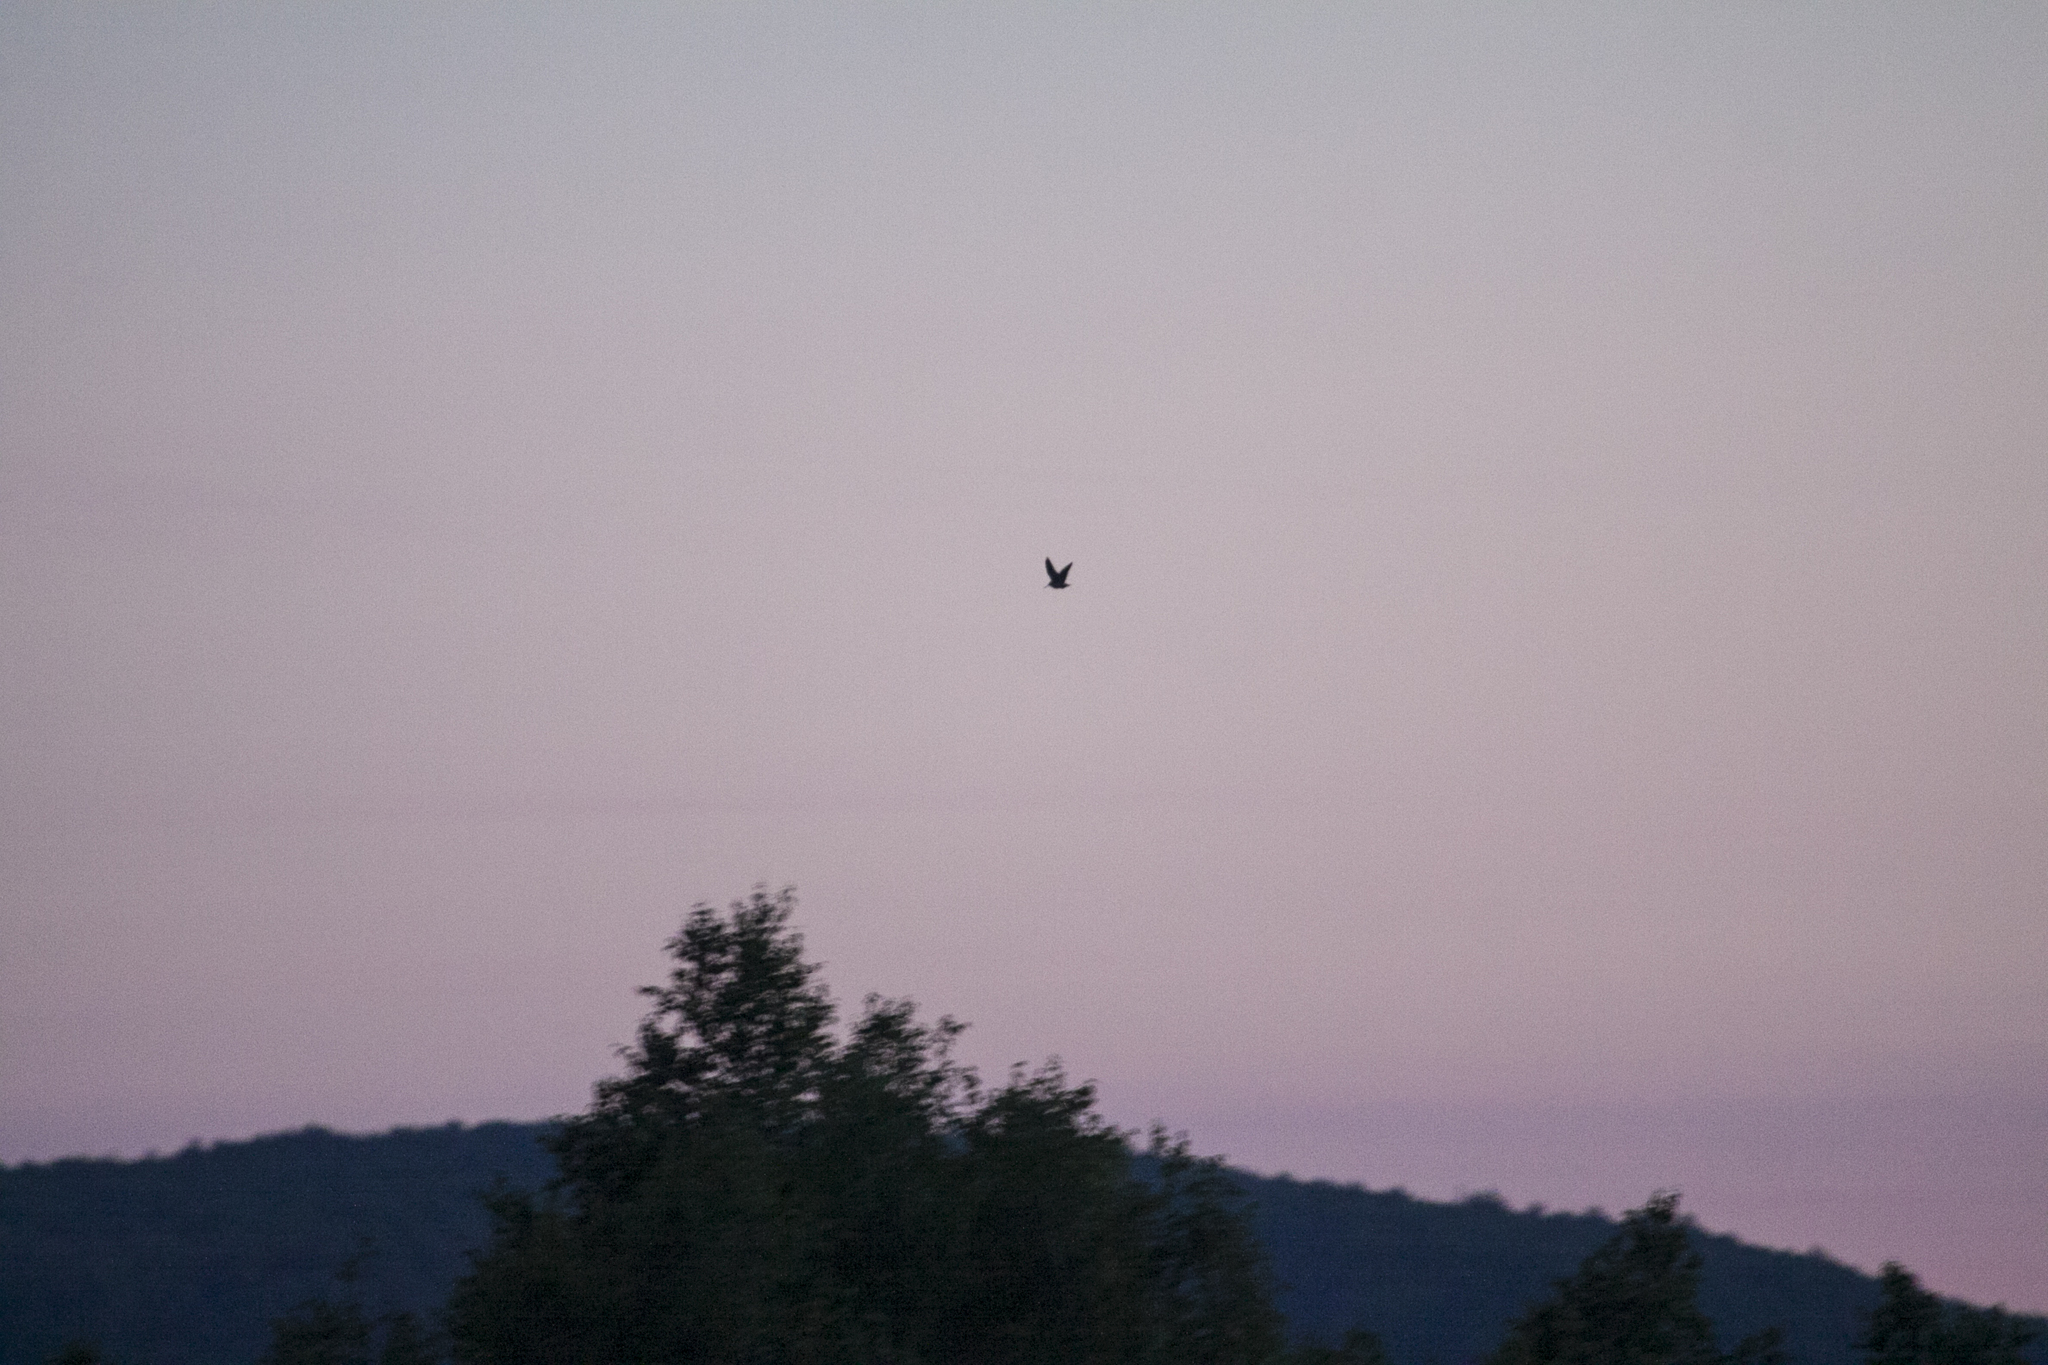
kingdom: Animalia
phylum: Chordata
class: Aves
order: Charadriiformes
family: Scolopacidae
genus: Scolopax
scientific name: Scolopax rusticola
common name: Eurasian woodcock
